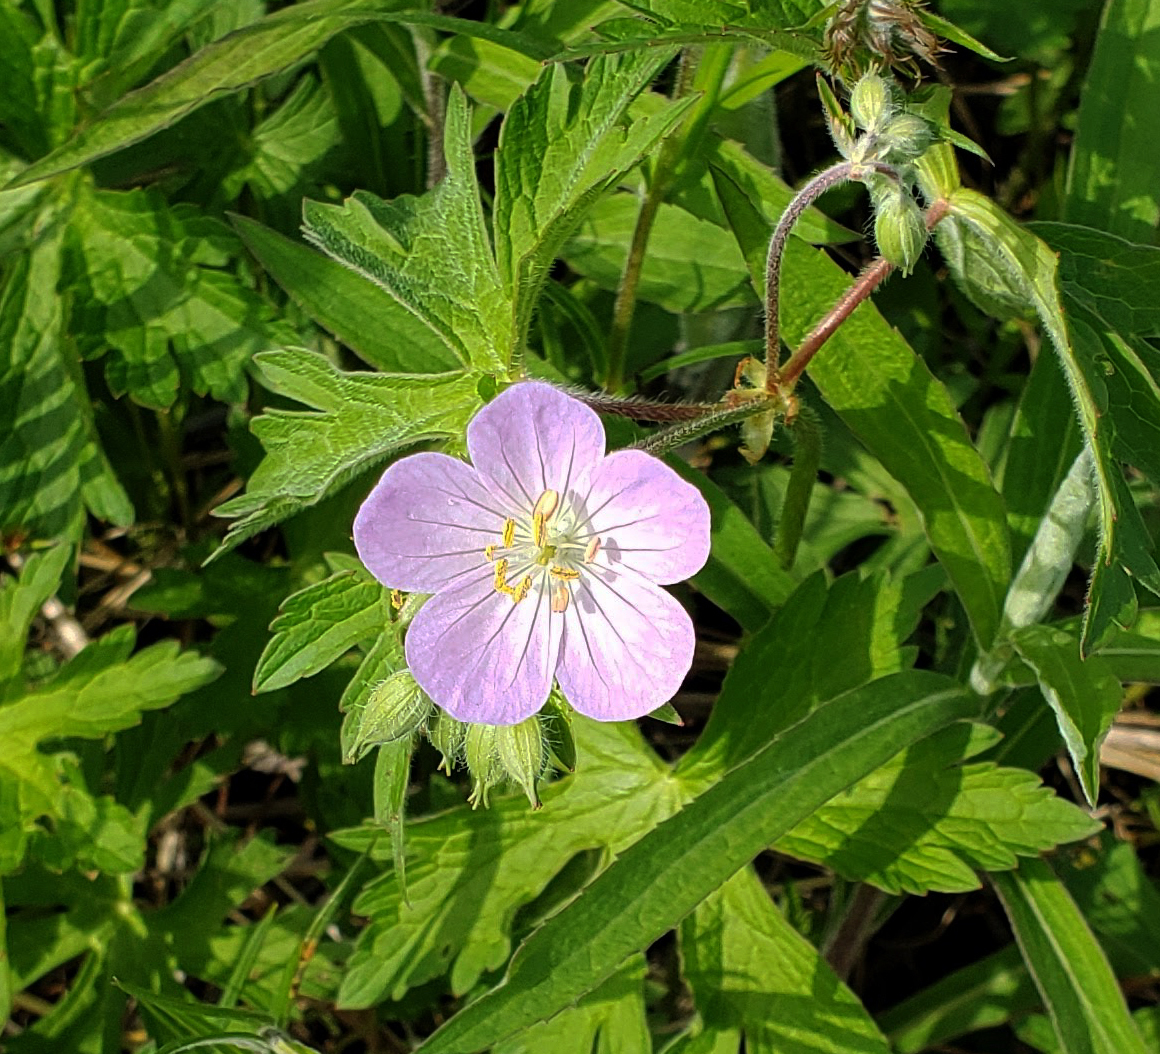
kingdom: Plantae
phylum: Tracheophyta
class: Magnoliopsida
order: Geraniales
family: Geraniaceae
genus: Geranium
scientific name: Geranium maculatum
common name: Spotted geranium
